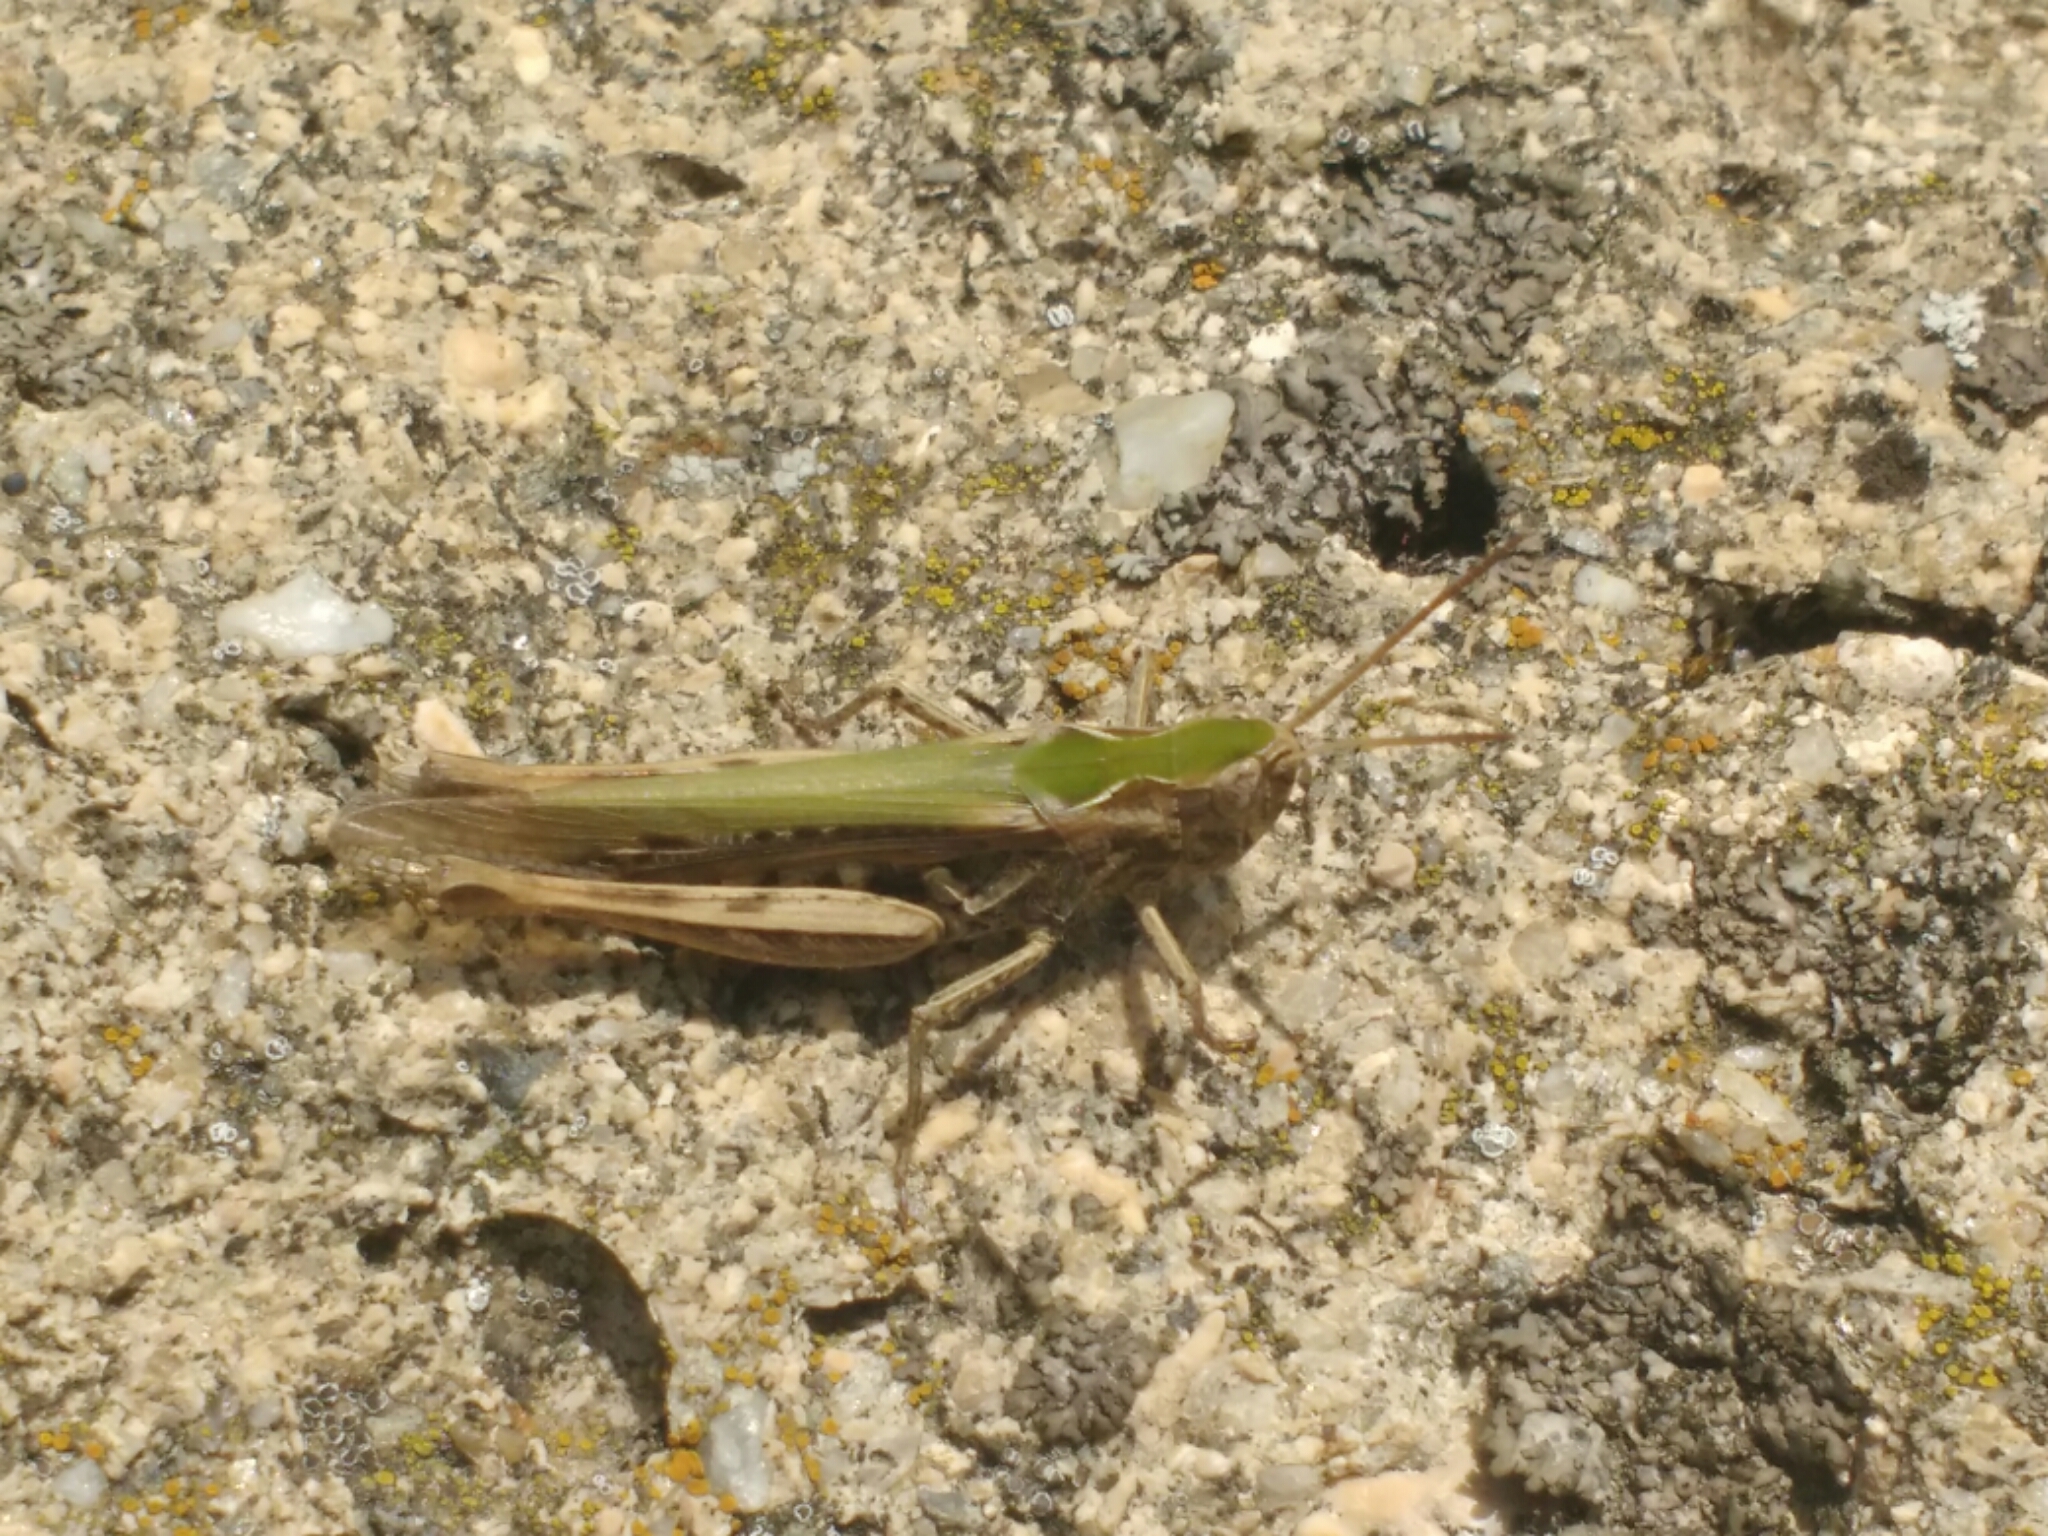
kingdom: Animalia
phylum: Arthropoda
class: Insecta
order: Orthoptera
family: Acrididae
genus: Chorthippus
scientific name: Chorthippus biguttulus
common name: Bow-winged grasshopper
